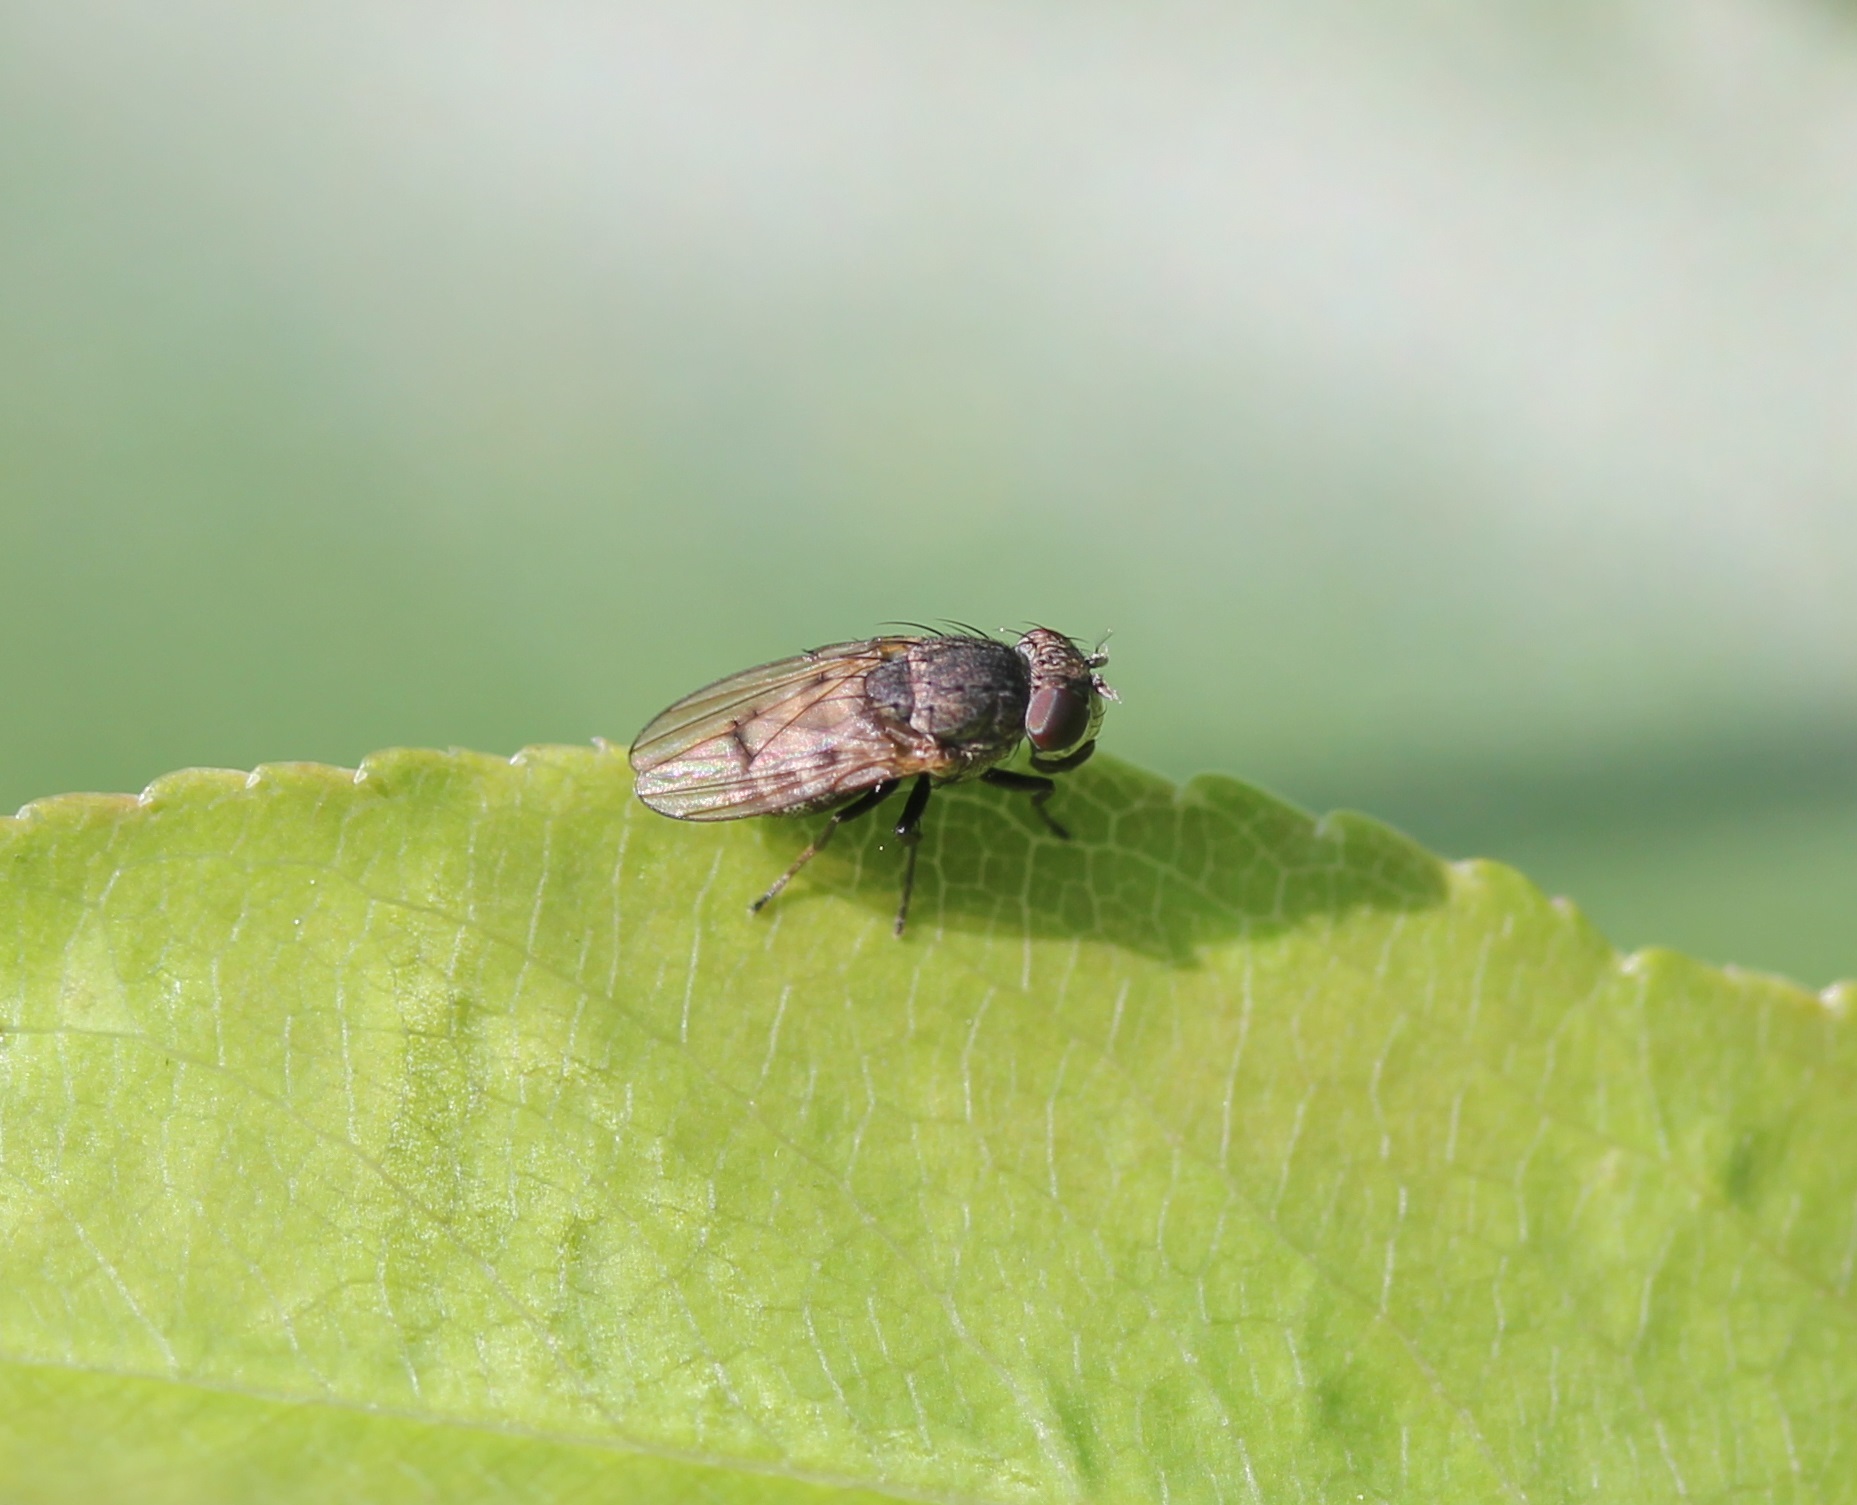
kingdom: Animalia
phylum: Arthropoda
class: Insecta
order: Diptera
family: Ephydridae
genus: Paralimna
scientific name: Paralimna punctipennis
